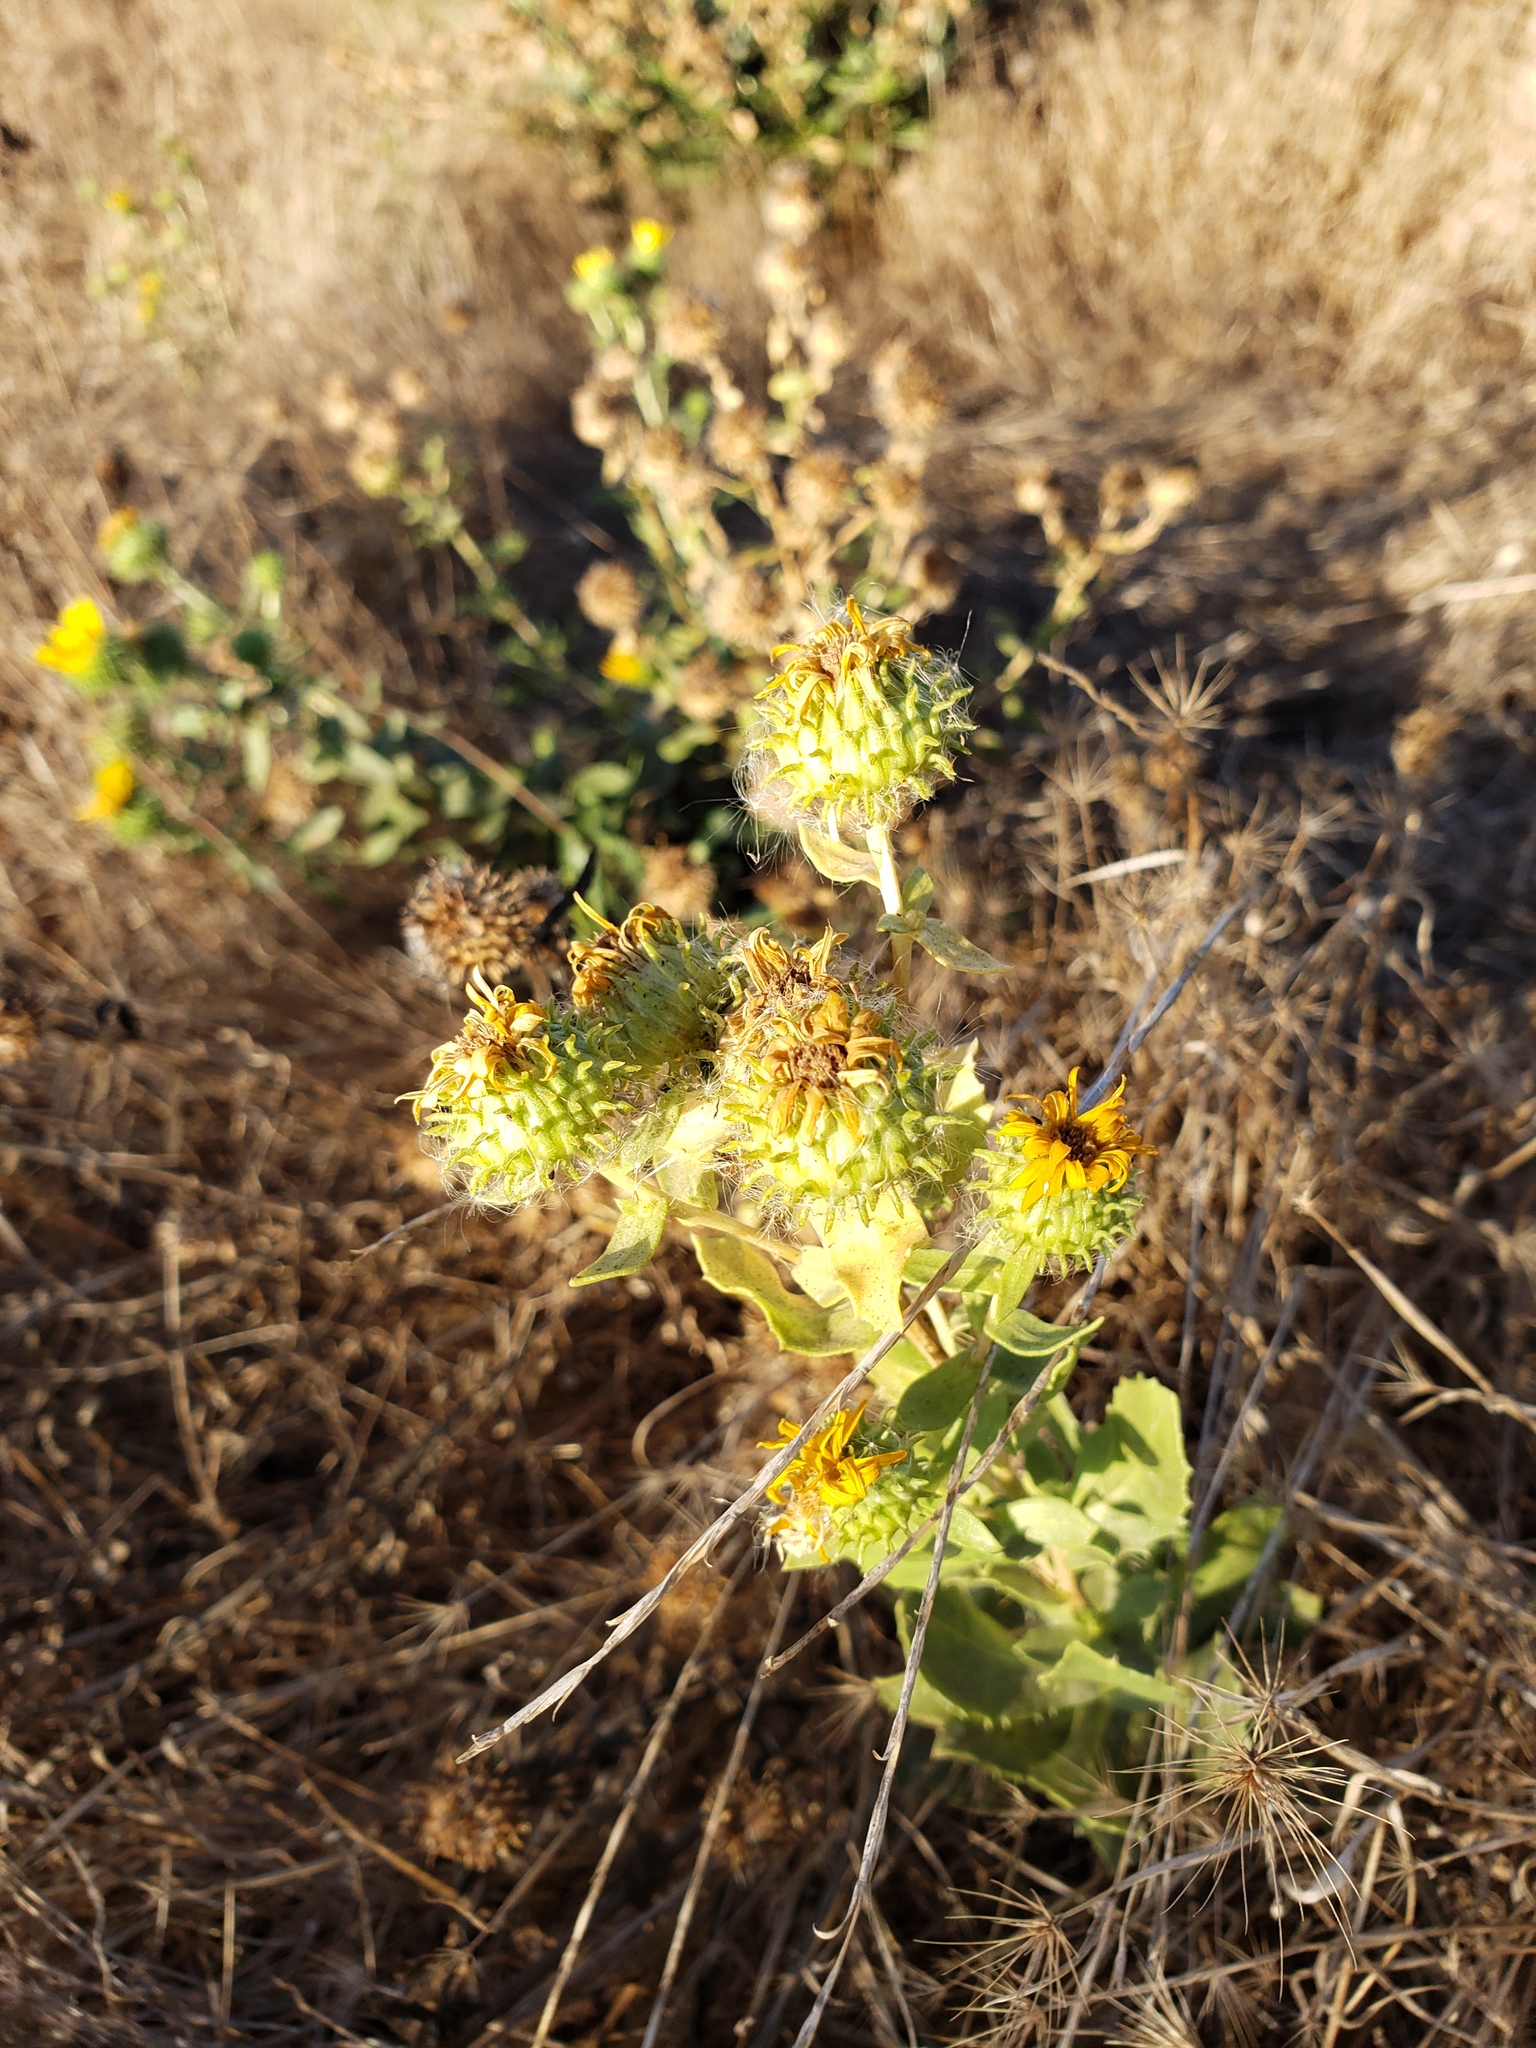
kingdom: Plantae
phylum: Tracheophyta
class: Magnoliopsida
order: Asterales
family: Asteraceae
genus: Grindelia
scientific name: Grindelia hirsutula
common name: Hairy gumweed
